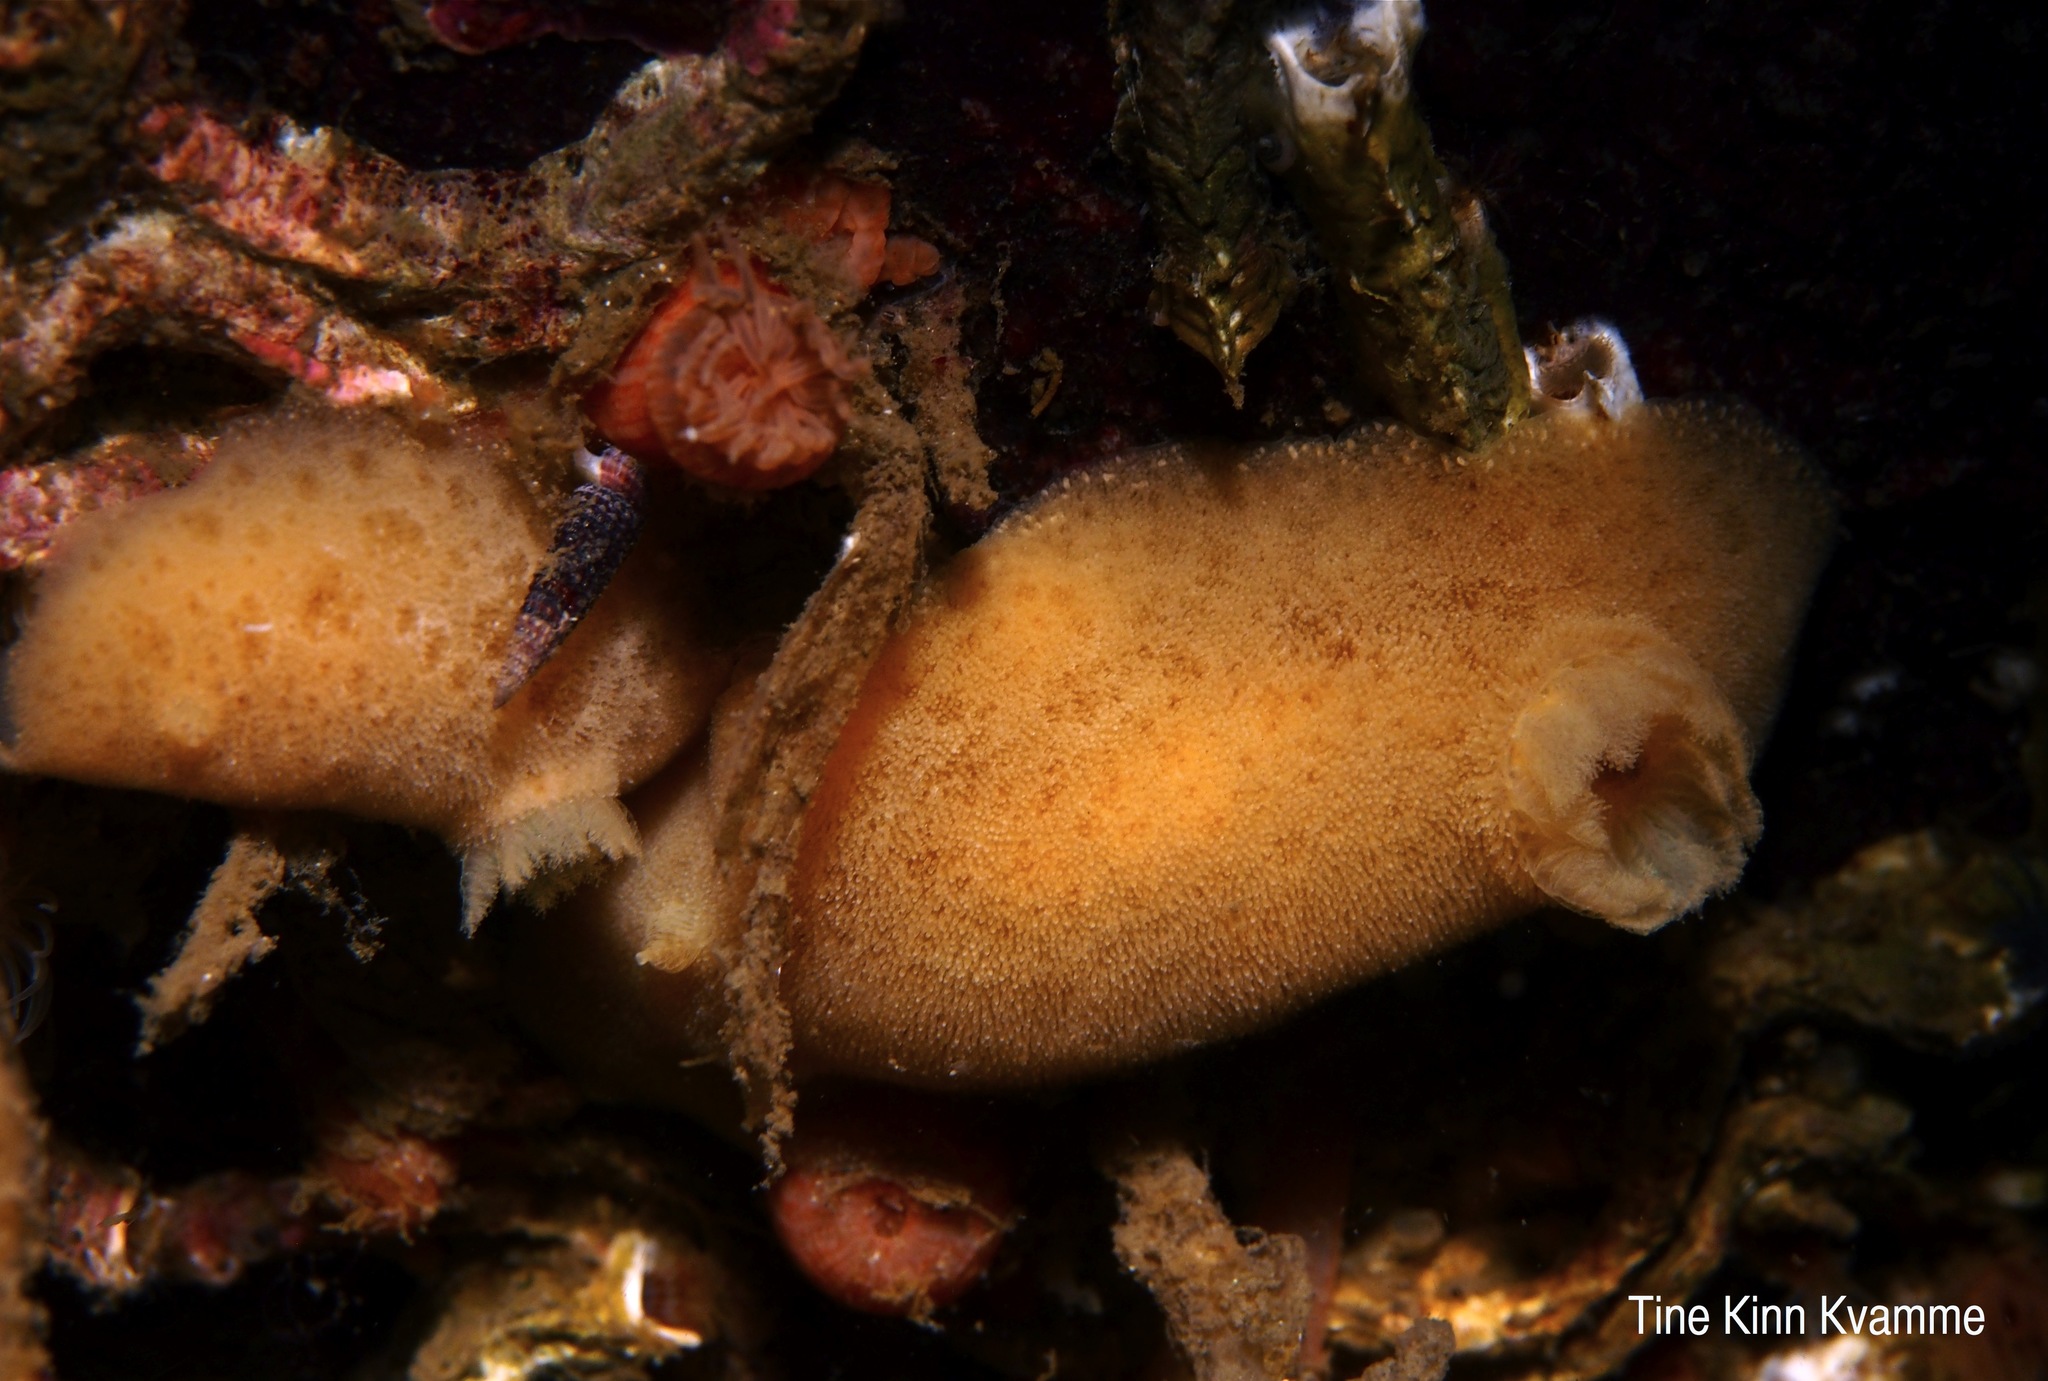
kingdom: Animalia
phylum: Mollusca
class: Gastropoda
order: Nudibranchia
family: Discodorididae
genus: Jorunna
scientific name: Jorunna tomentosa
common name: Grey sea slug
